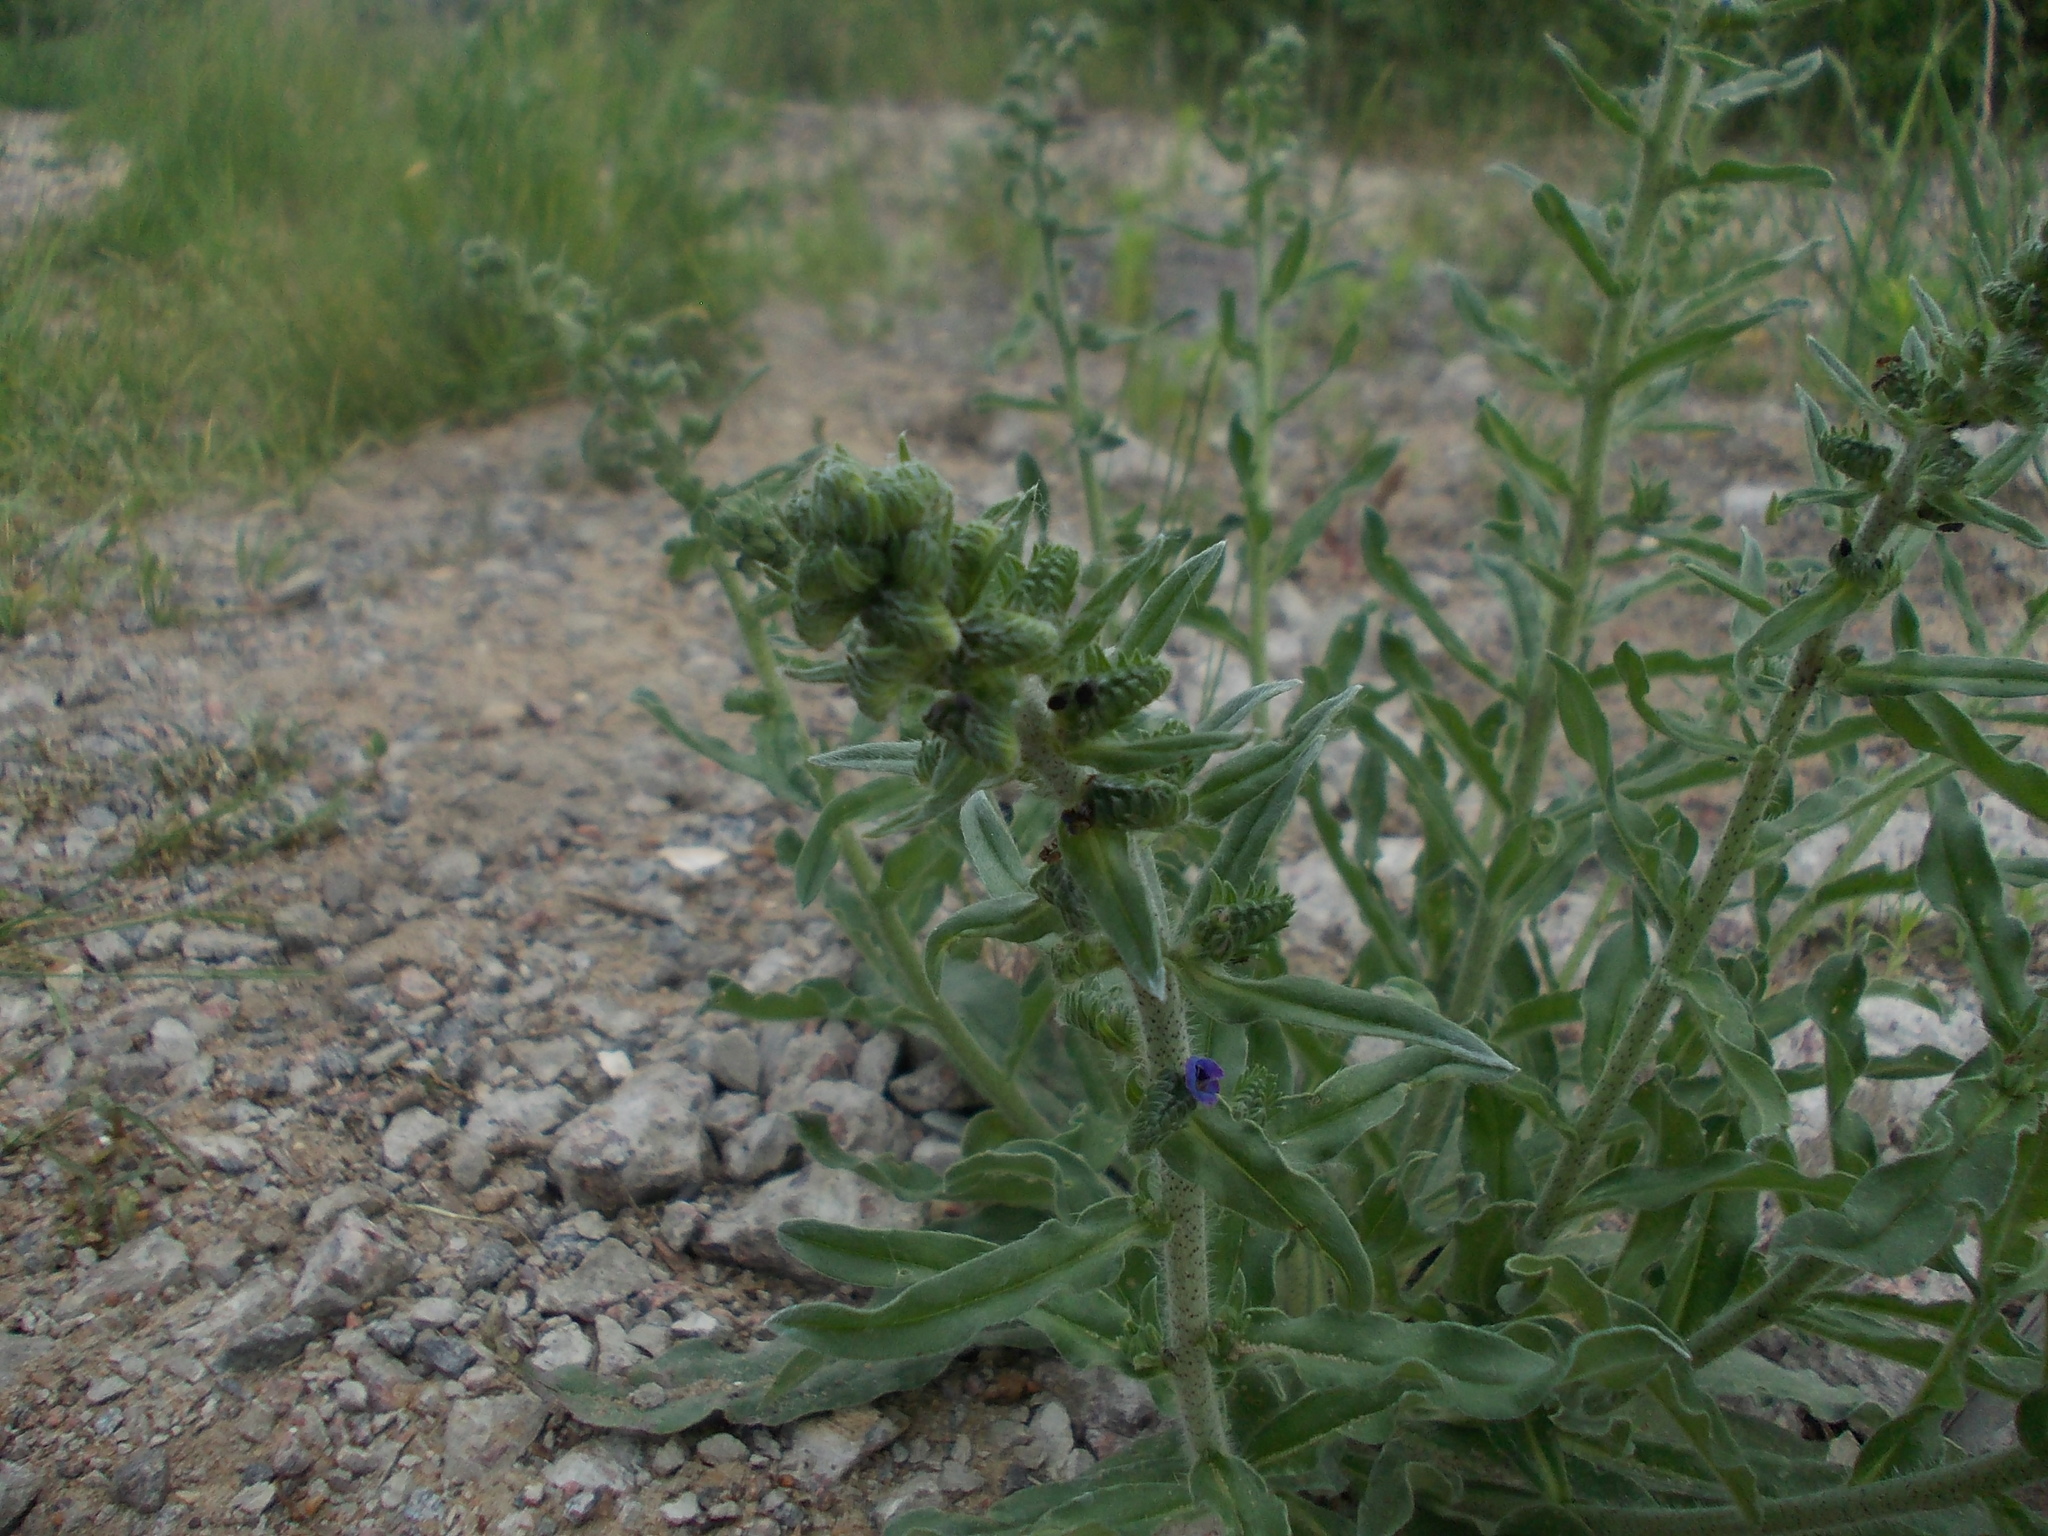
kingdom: Plantae
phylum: Tracheophyta
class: Magnoliopsida
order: Boraginales
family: Boraginaceae
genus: Echium
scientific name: Echium vulgare
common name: Common viper's bugloss
